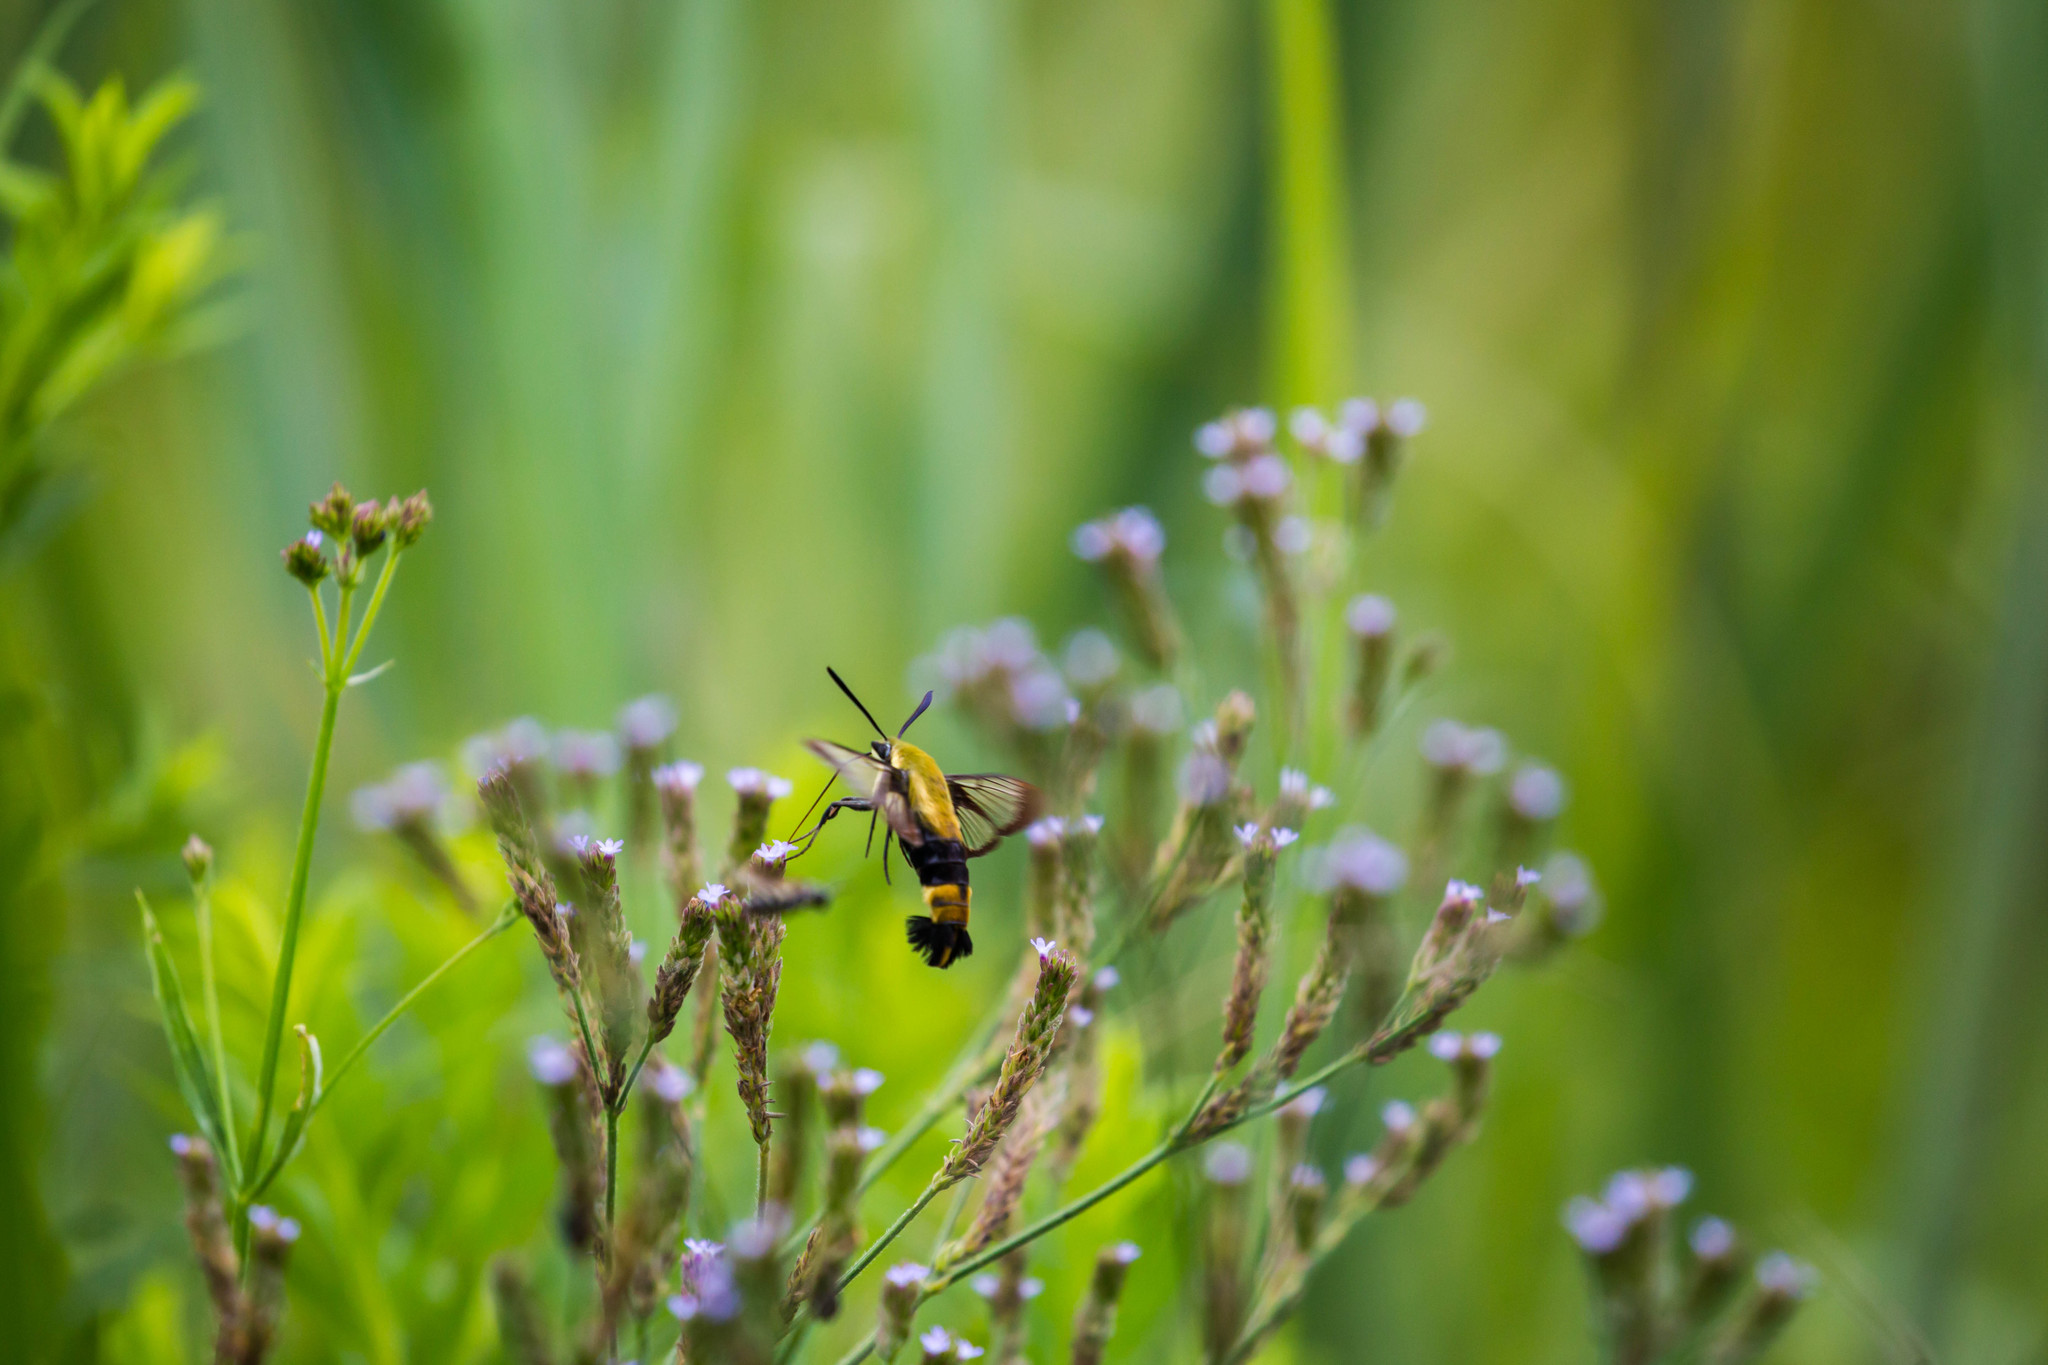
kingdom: Animalia
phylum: Arthropoda
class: Insecta
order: Lepidoptera
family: Sphingidae
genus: Hemaris
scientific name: Hemaris diffinis
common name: Bumblebee moth
